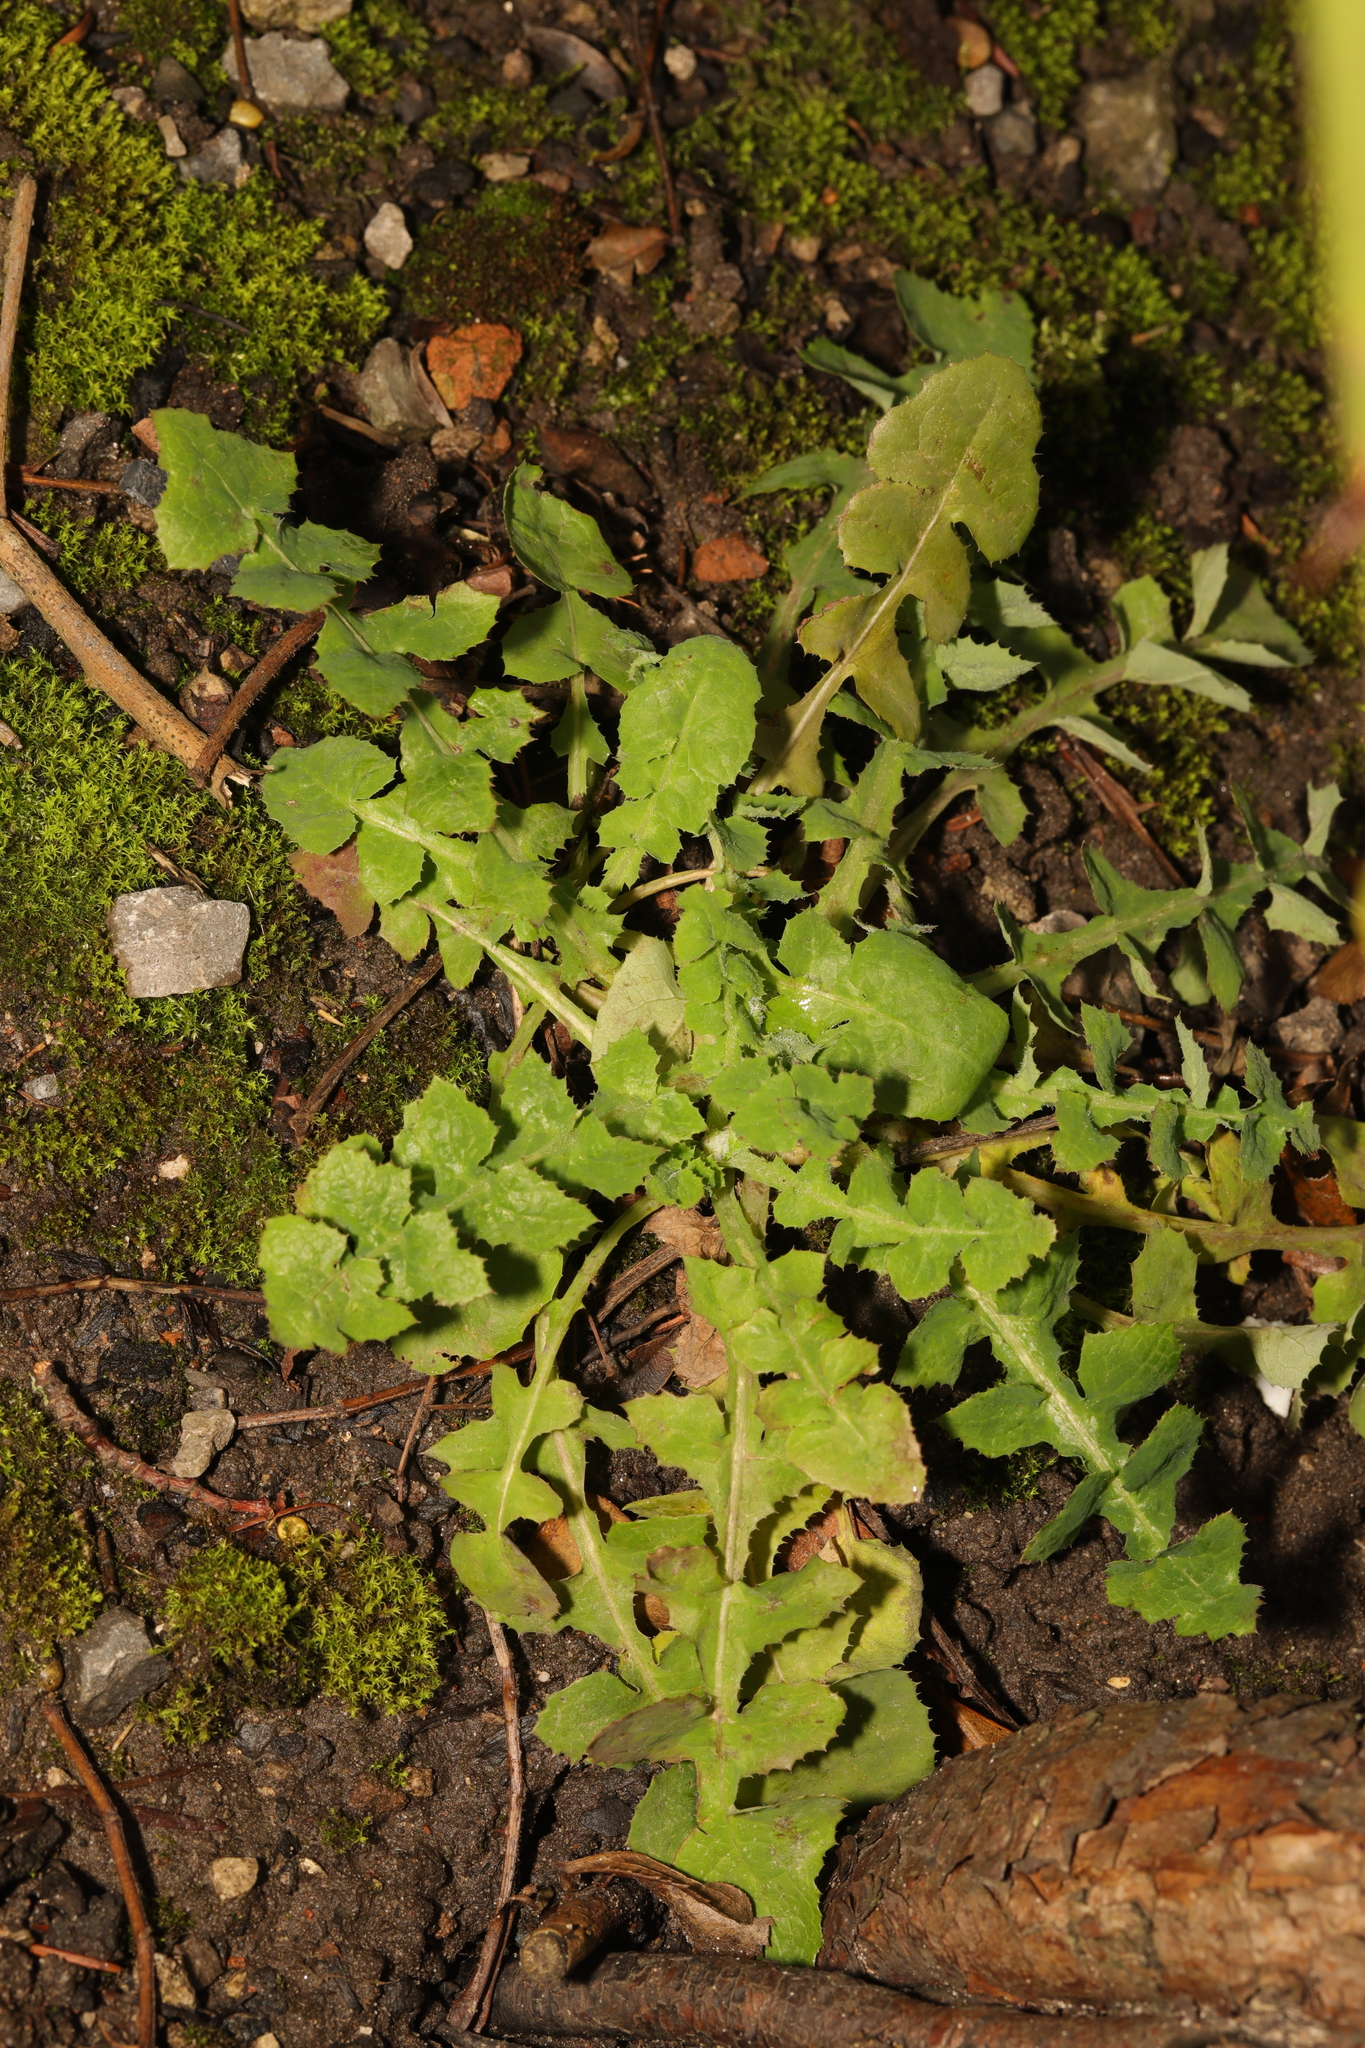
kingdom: Plantae
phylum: Tracheophyta
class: Magnoliopsida
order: Asterales
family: Asteraceae
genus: Sonchus
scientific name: Sonchus oleraceus
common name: Common sowthistle
